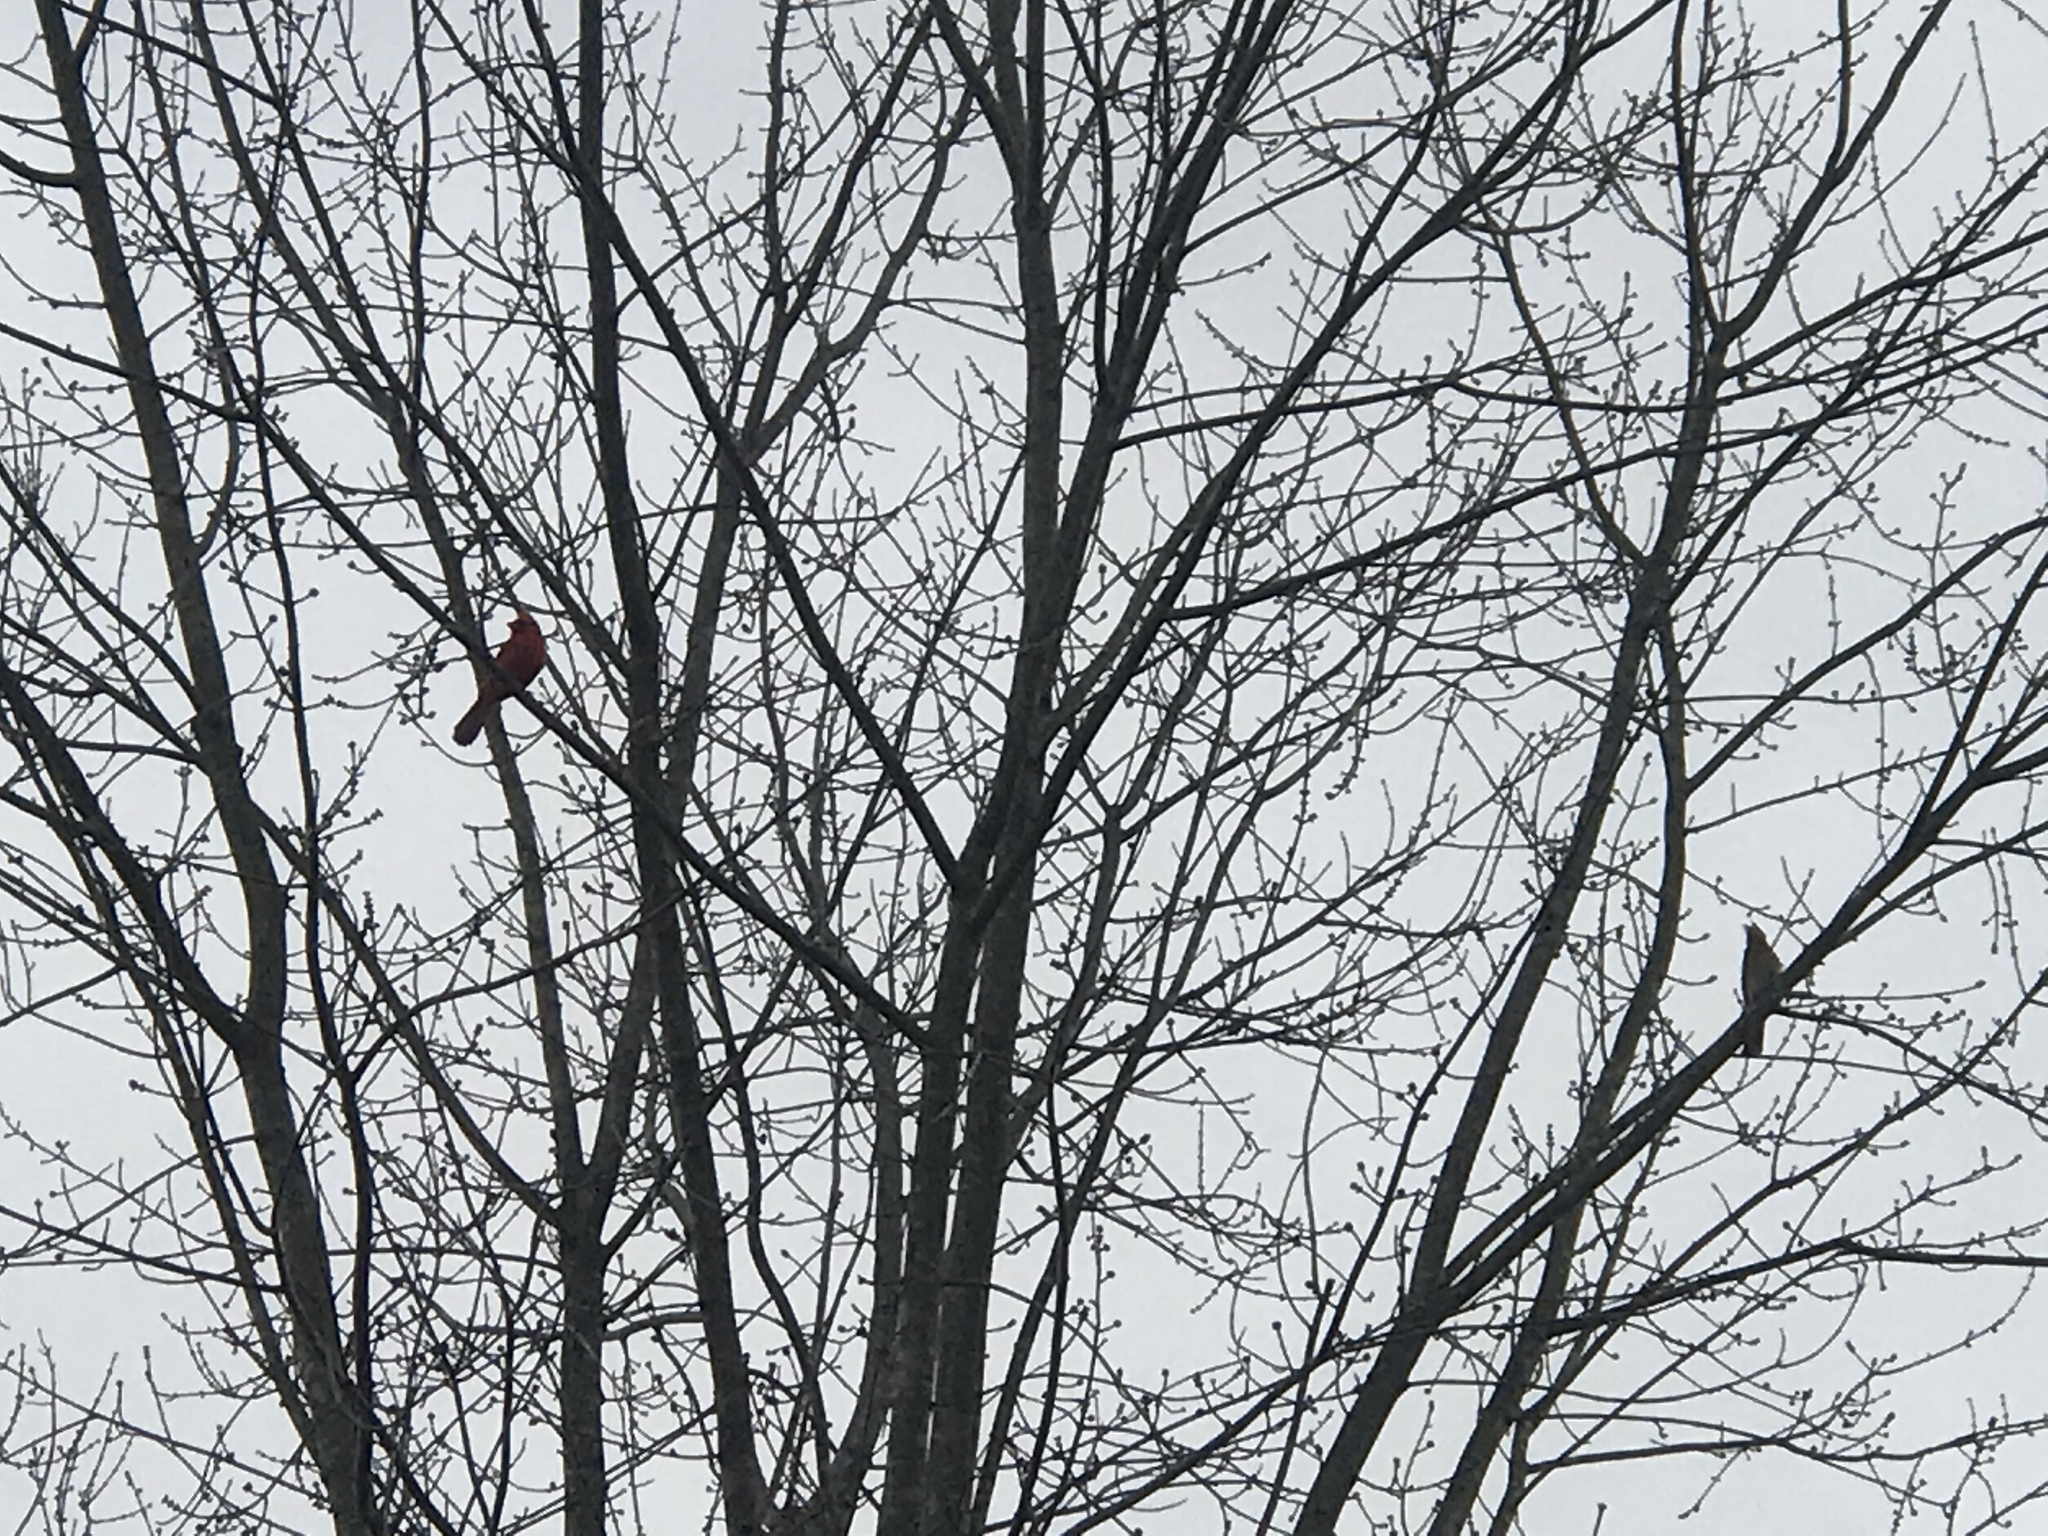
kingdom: Animalia
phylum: Chordata
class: Aves
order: Passeriformes
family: Cardinalidae
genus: Cardinalis
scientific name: Cardinalis cardinalis
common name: Northern cardinal
